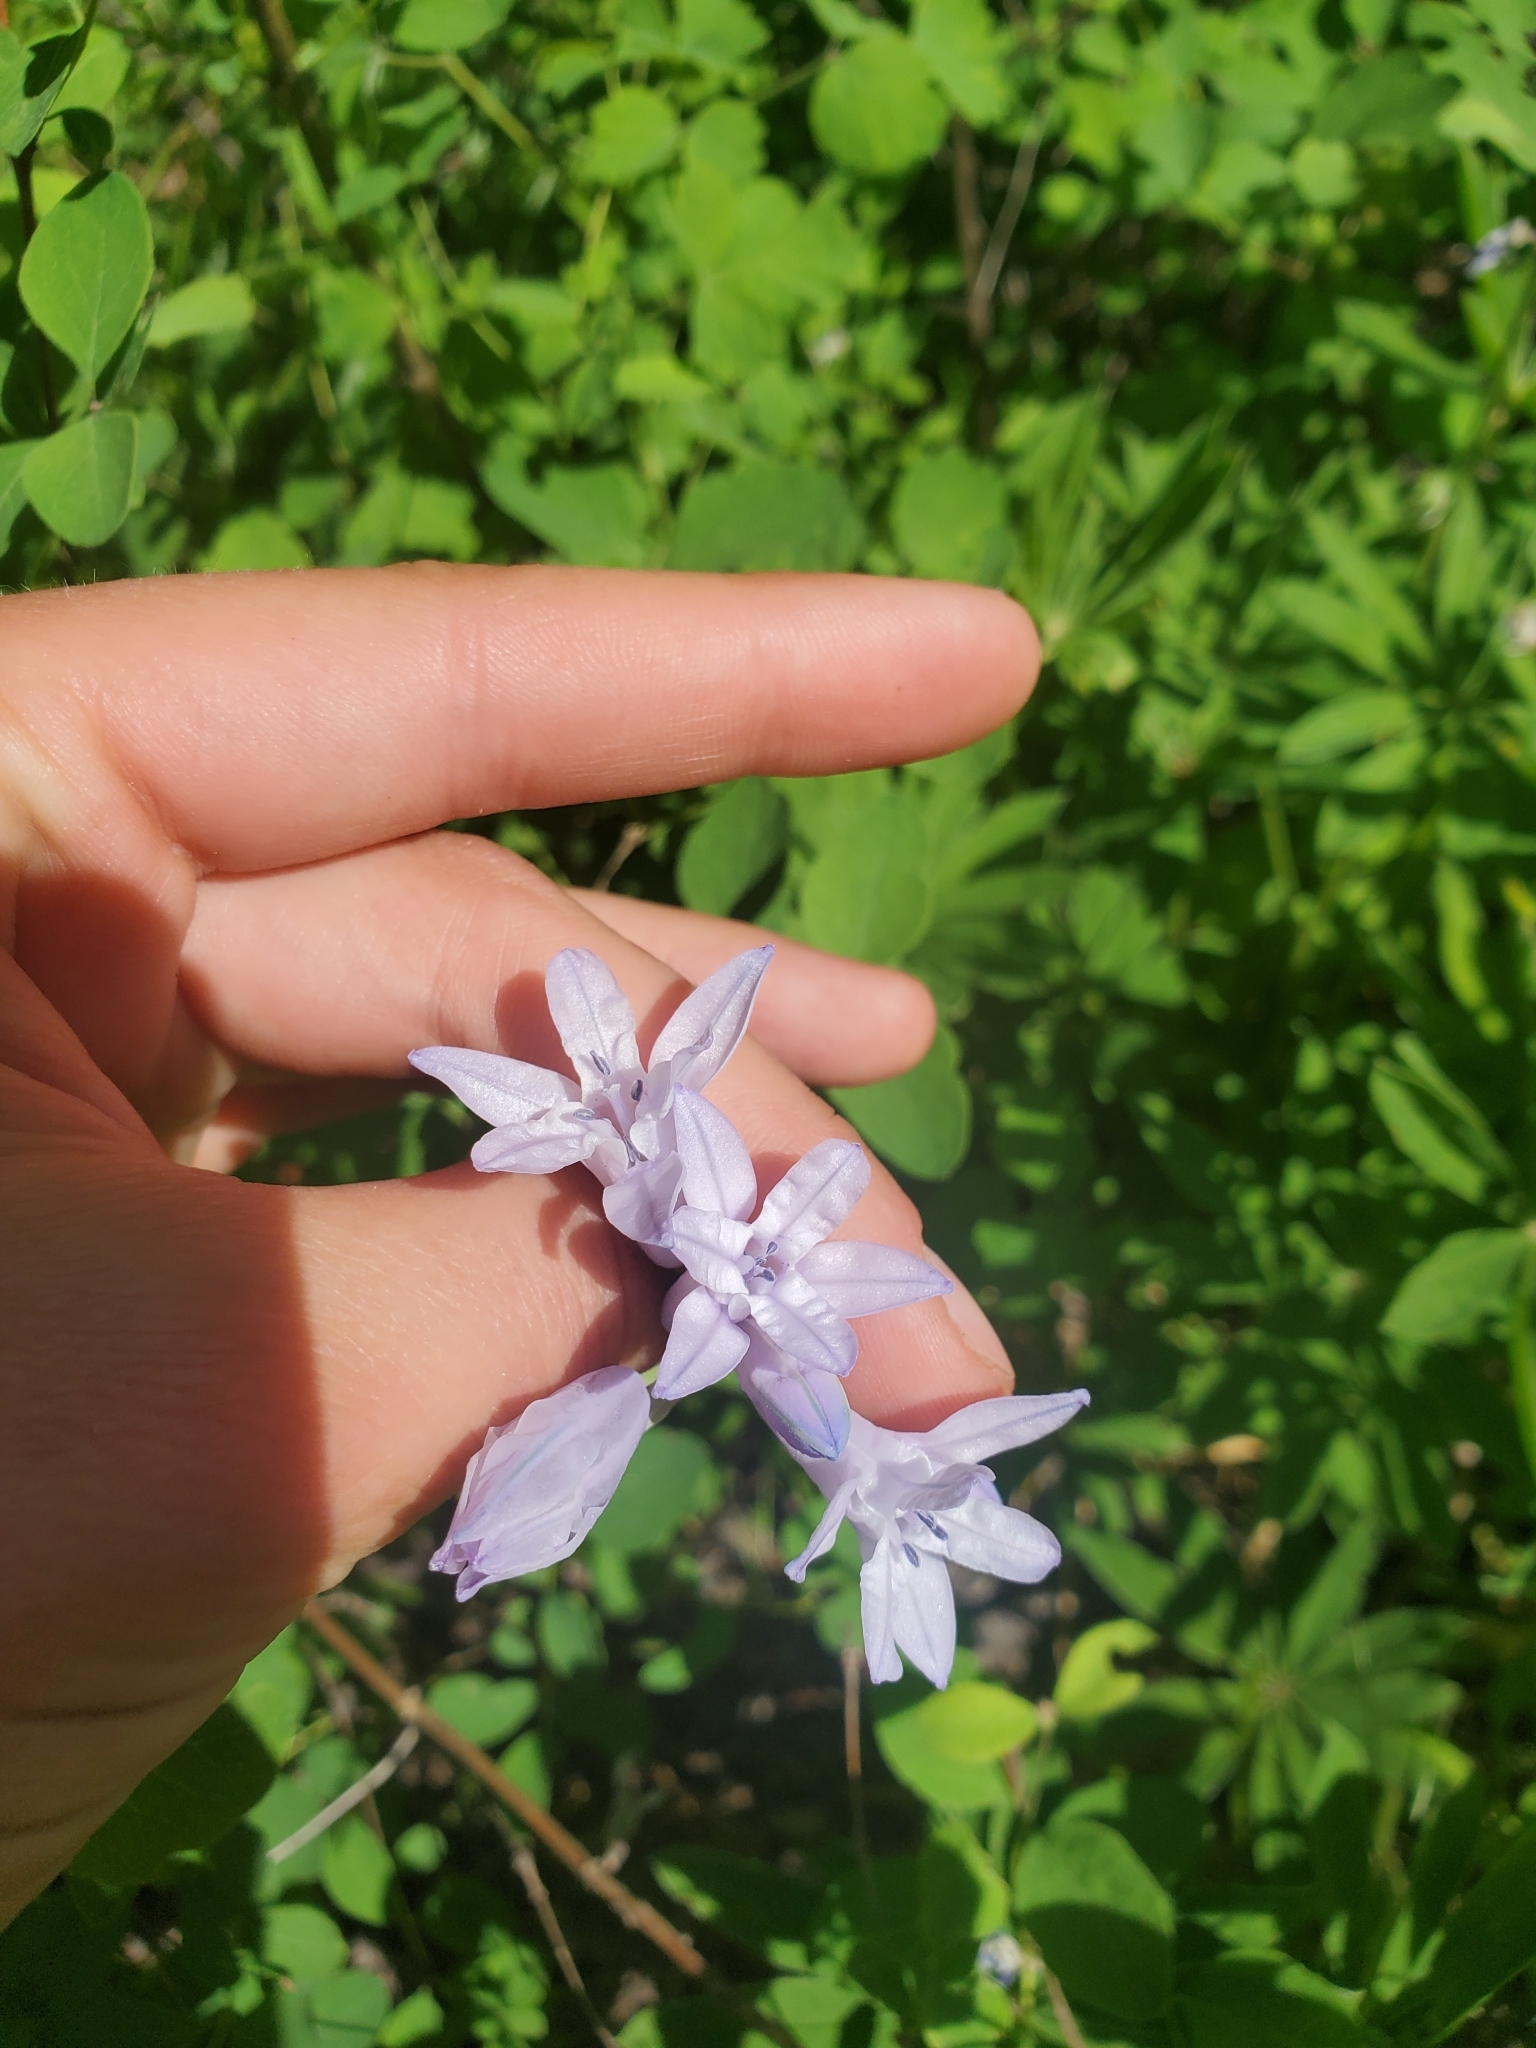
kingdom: Plantae
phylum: Tracheophyta
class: Liliopsida
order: Asparagales
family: Asparagaceae
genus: Triteleia
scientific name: Triteleia grandiflora
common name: Wild hyacinth
